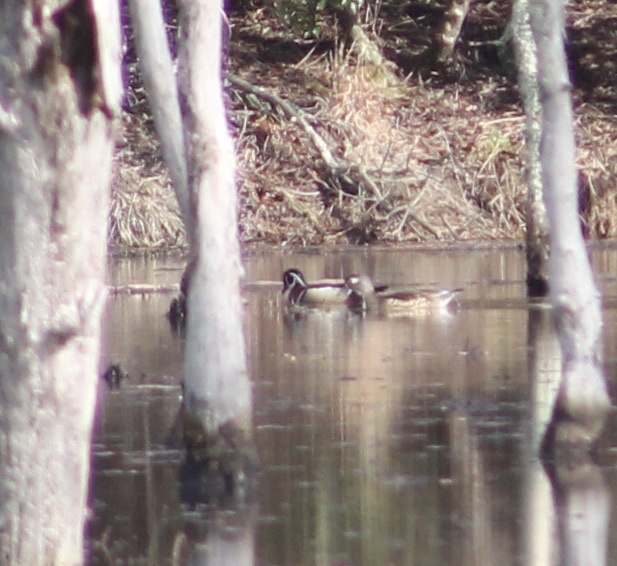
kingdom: Animalia
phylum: Chordata
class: Aves
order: Anseriformes
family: Anatidae
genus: Aix
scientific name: Aix sponsa
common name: Wood duck
